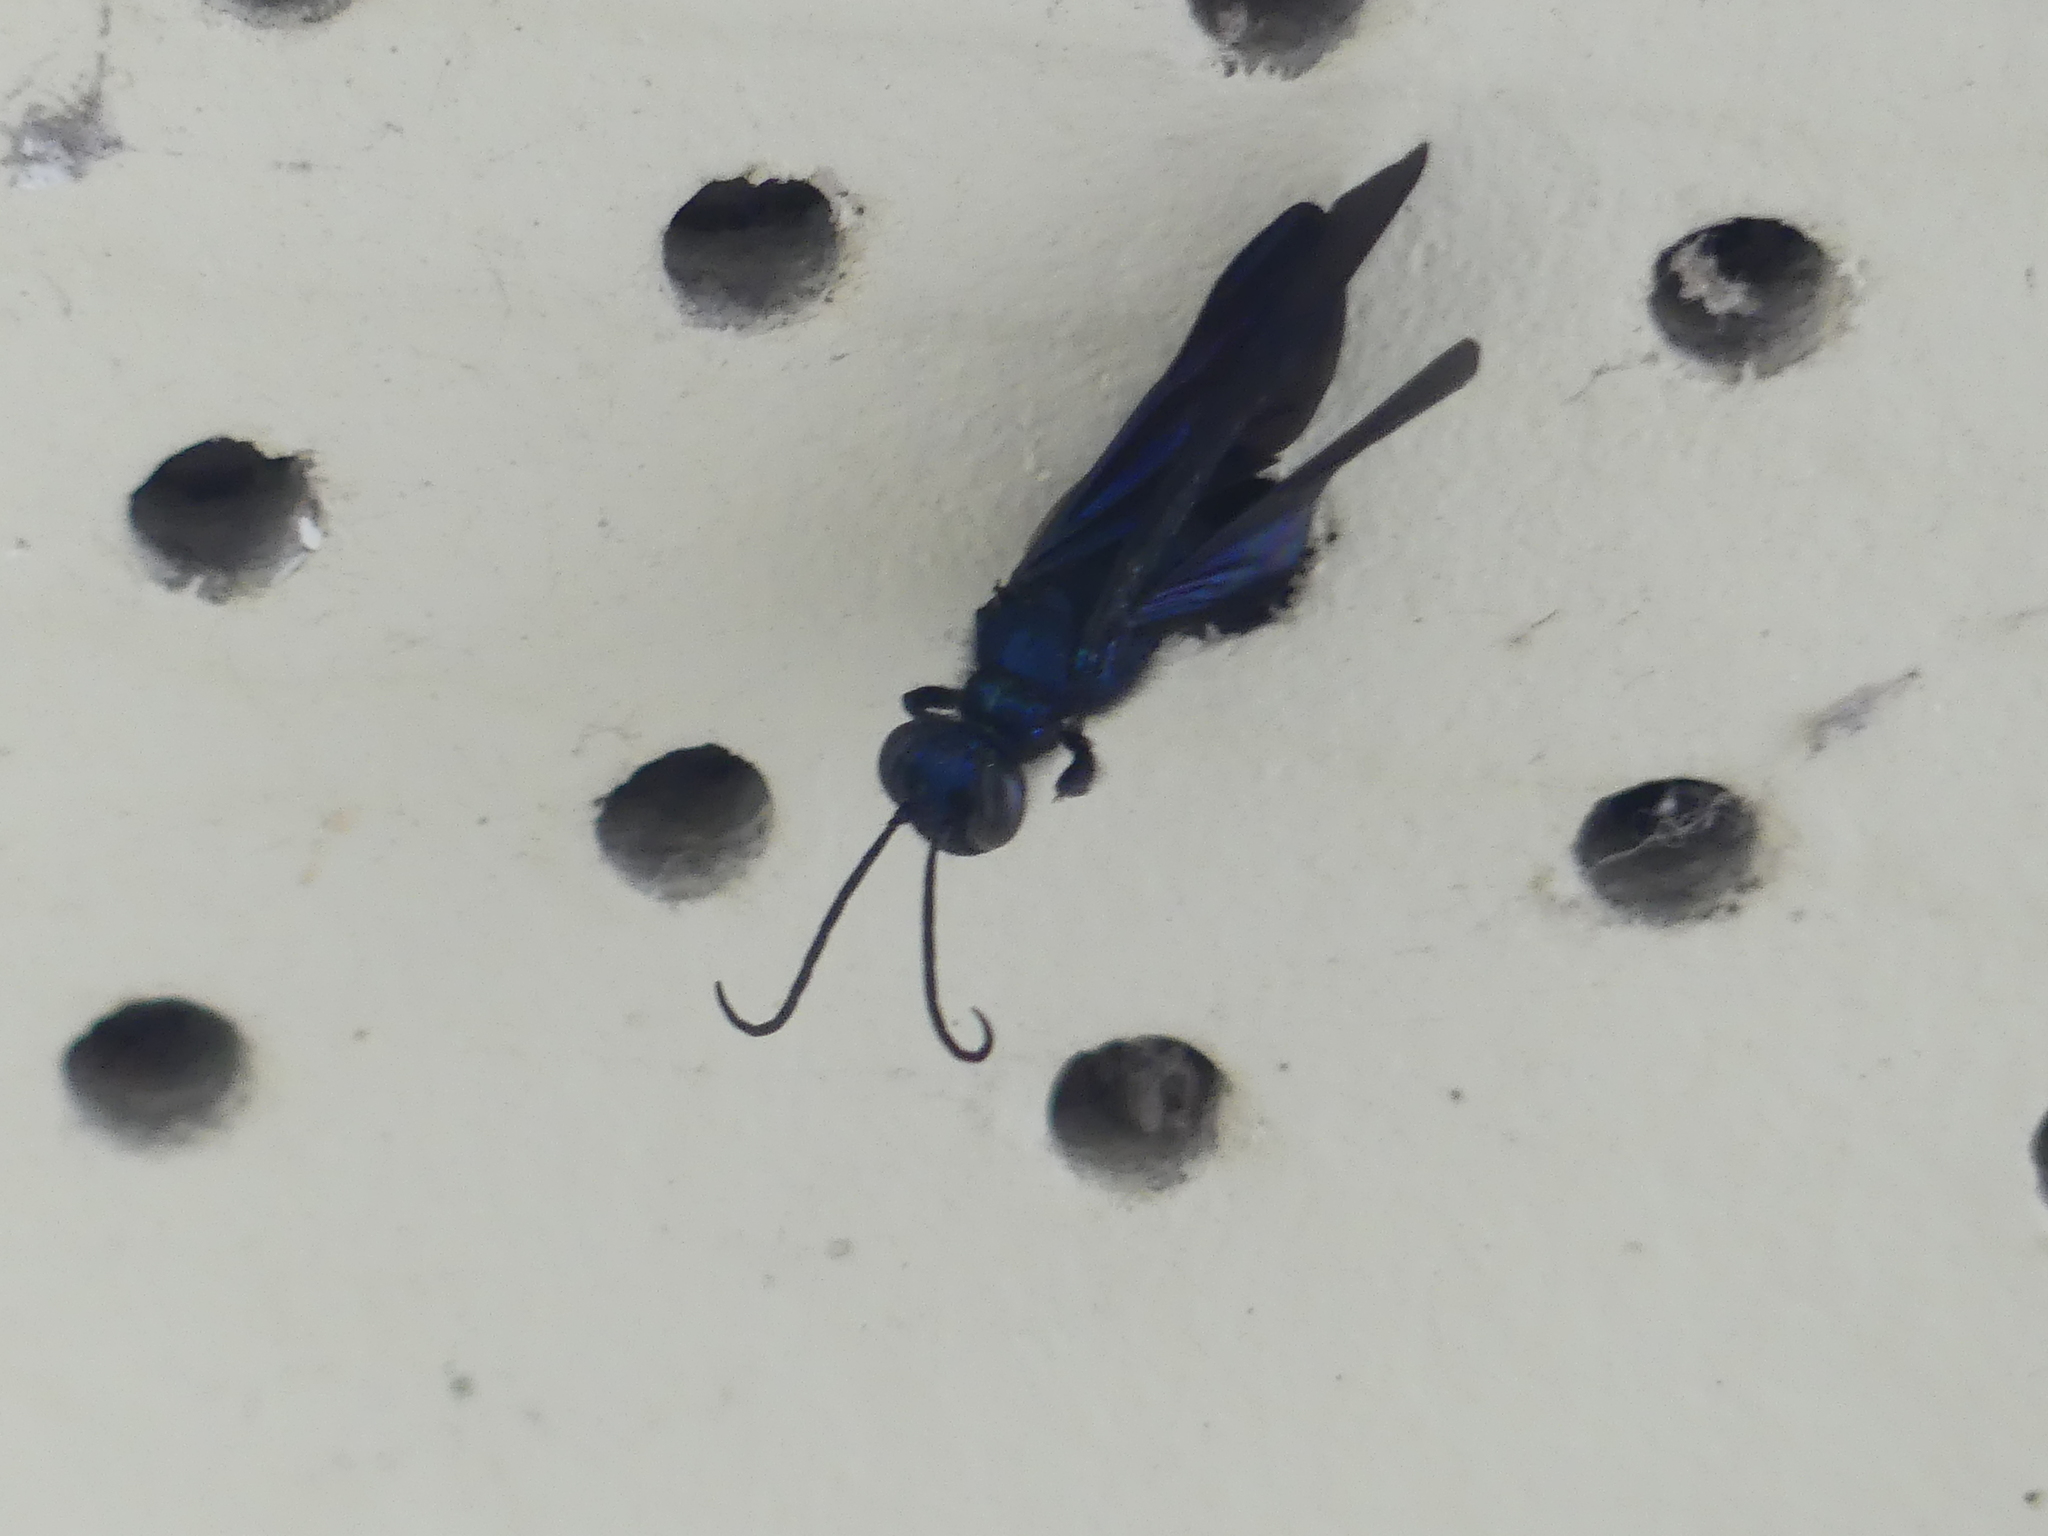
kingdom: Animalia
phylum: Arthropoda
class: Insecta
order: Hymenoptera
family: Sphecidae
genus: Chalybion
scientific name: Chalybion californicum
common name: Mud dauber
